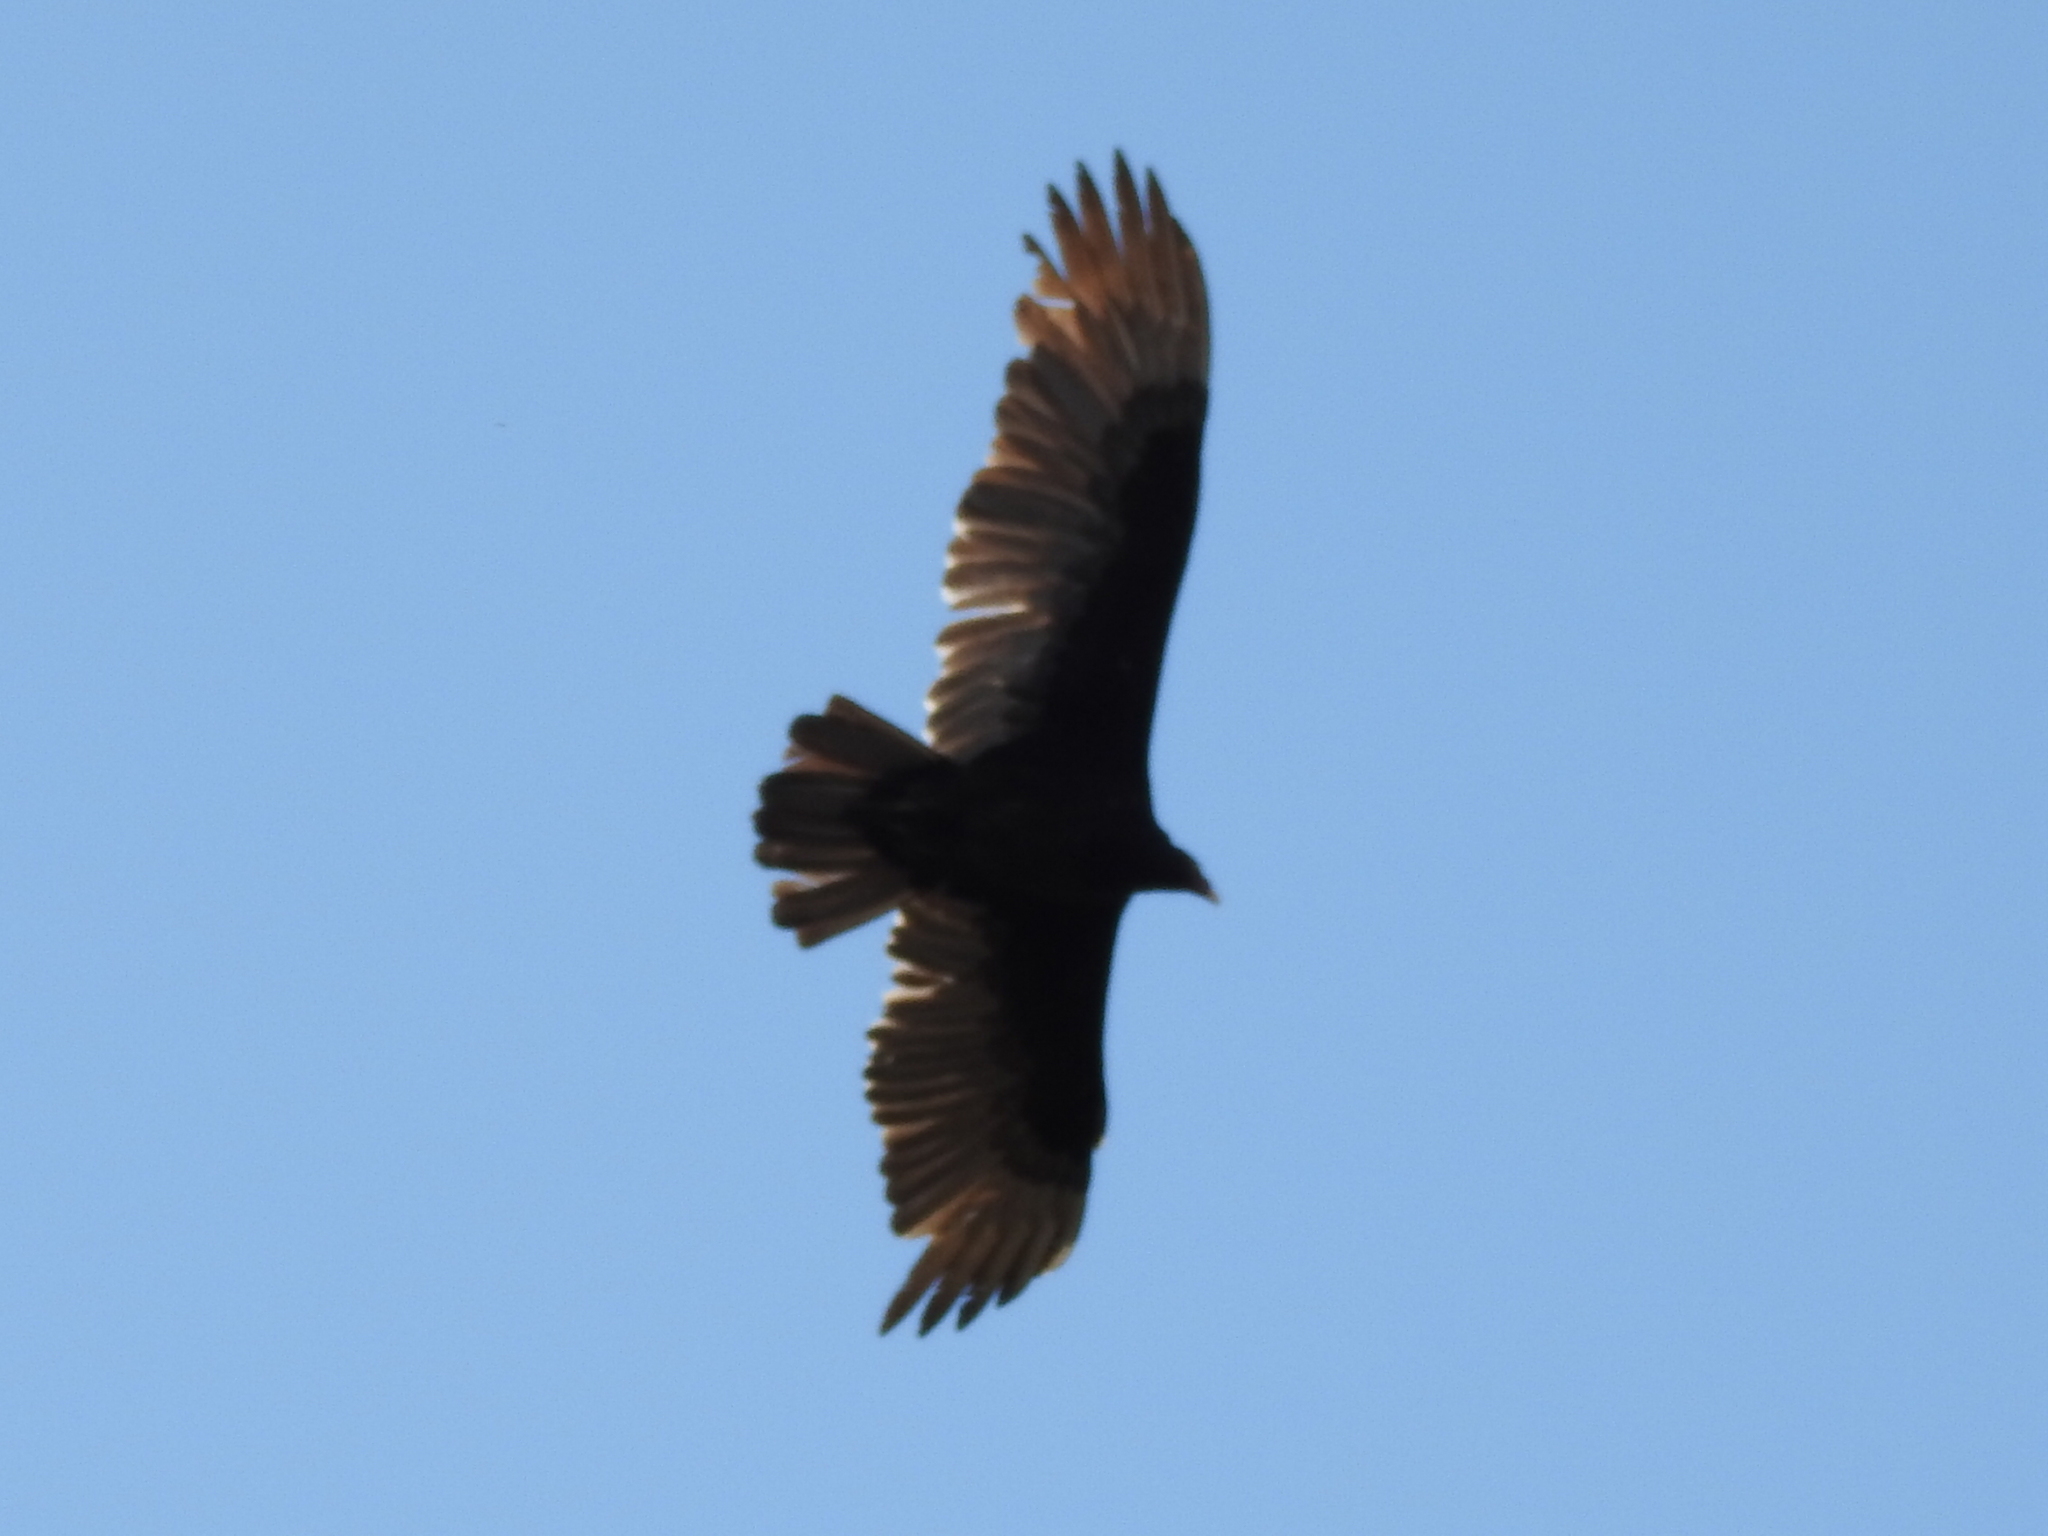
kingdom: Animalia
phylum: Chordata
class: Aves
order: Accipitriformes
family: Cathartidae
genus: Cathartes
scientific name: Cathartes aura
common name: Turkey vulture
